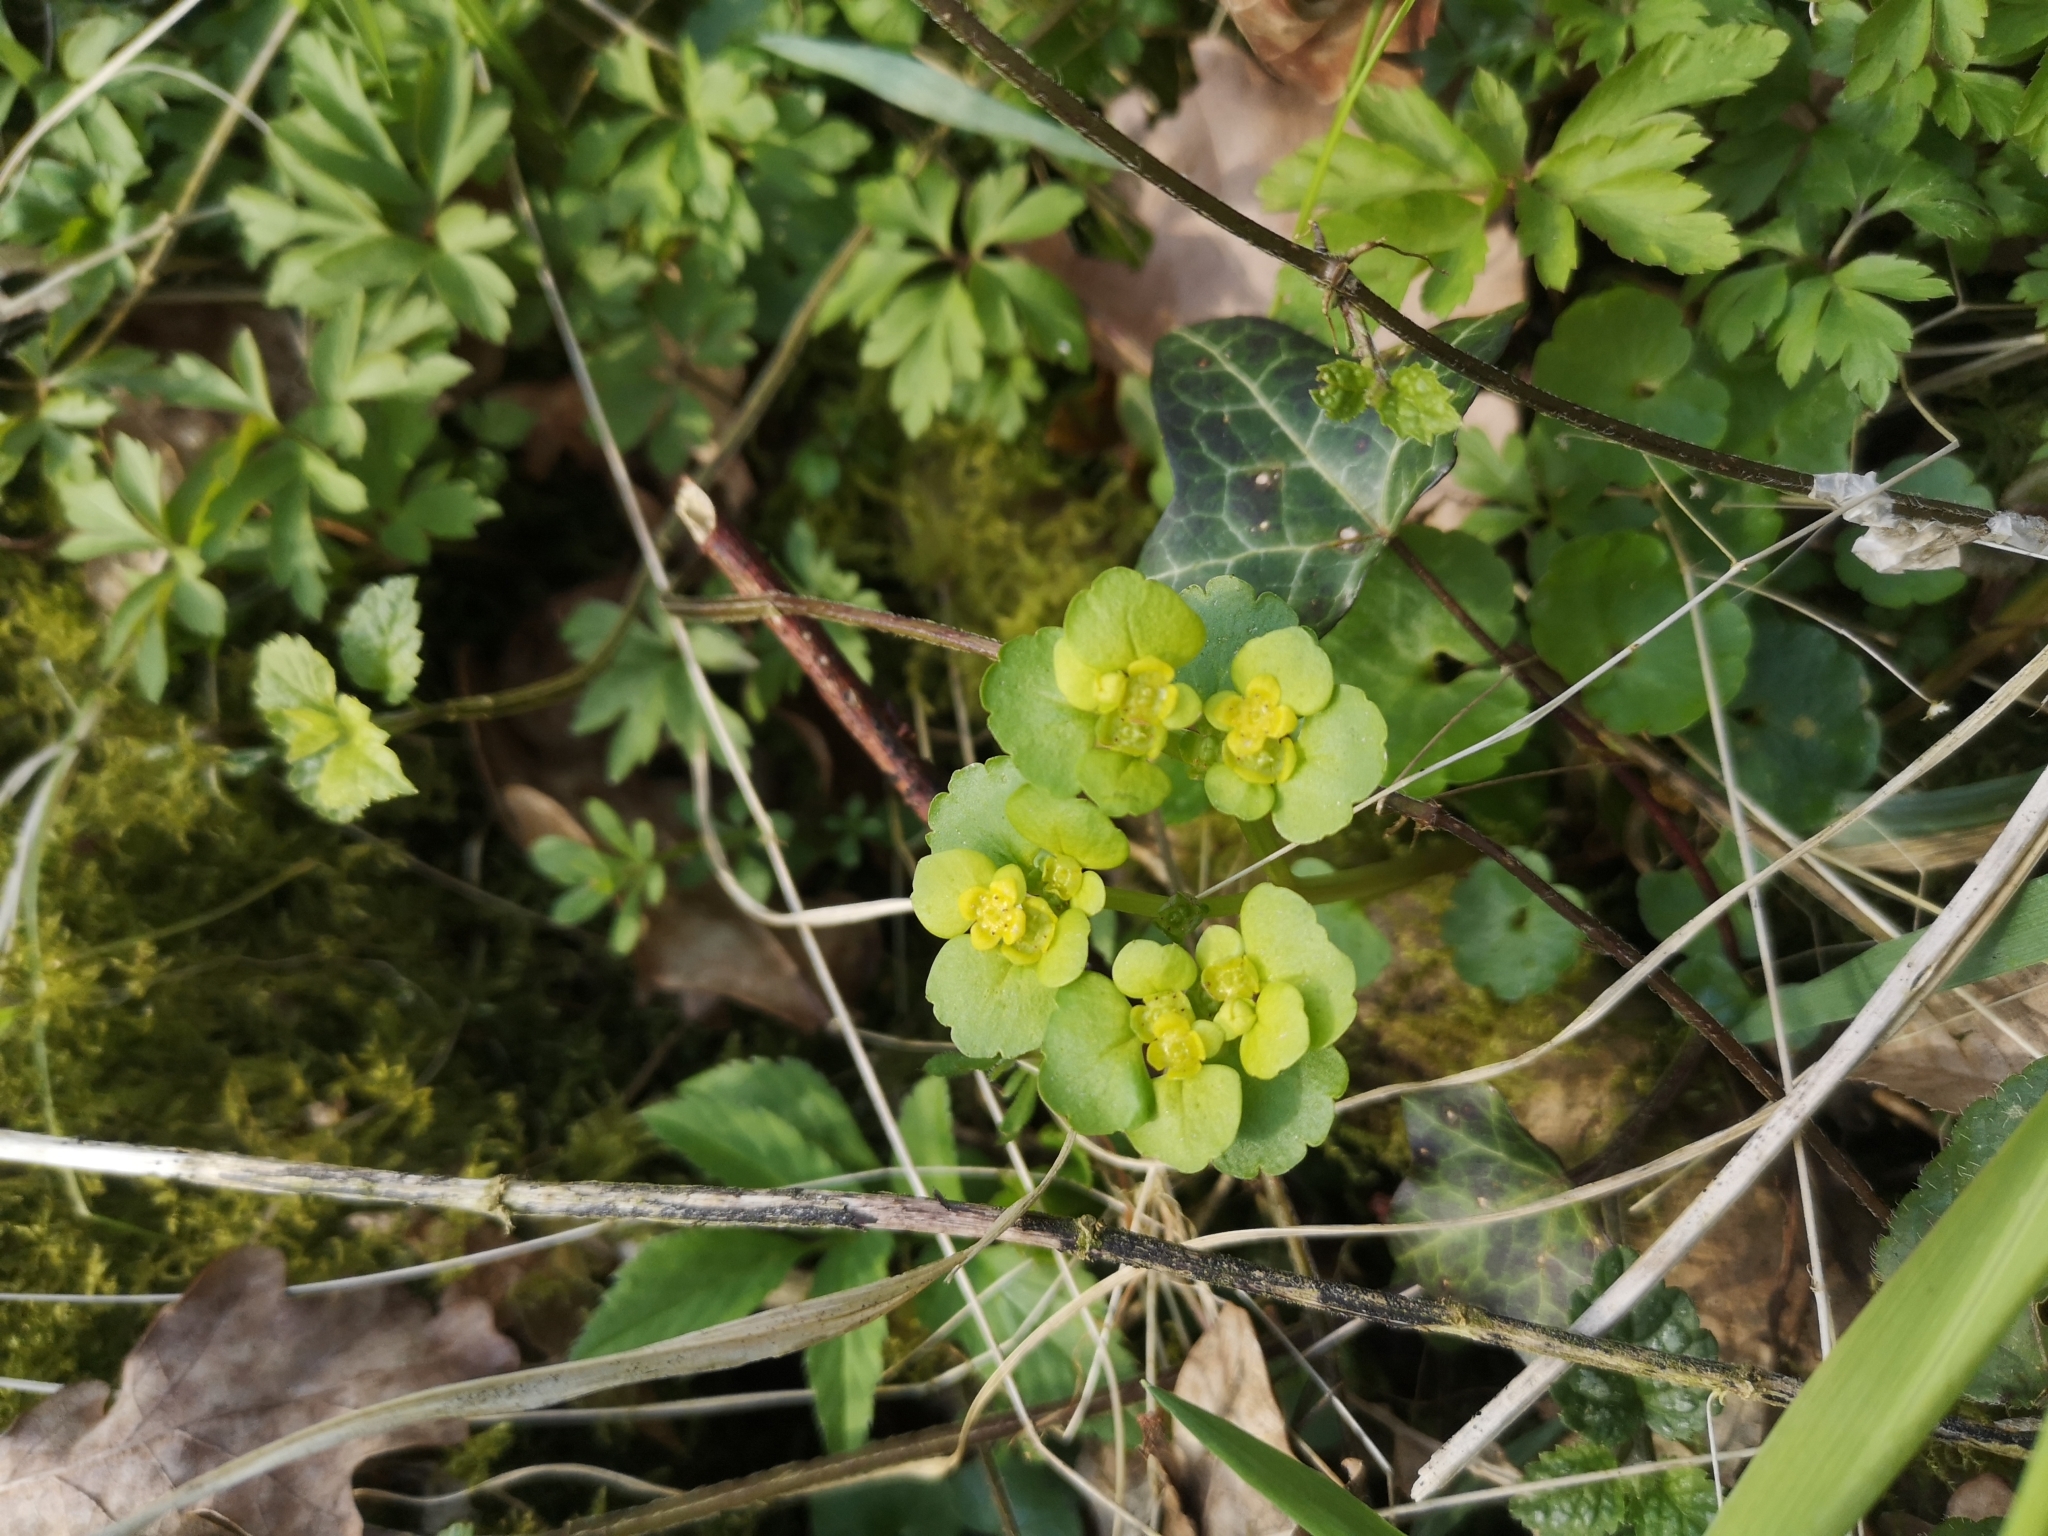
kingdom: Plantae
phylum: Tracheophyta
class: Magnoliopsida
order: Saxifragales
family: Saxifragaceae
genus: Chrysosplenium
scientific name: Chrysosplenium alternifolium
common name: Alternate-leaved golden-saxifrage
